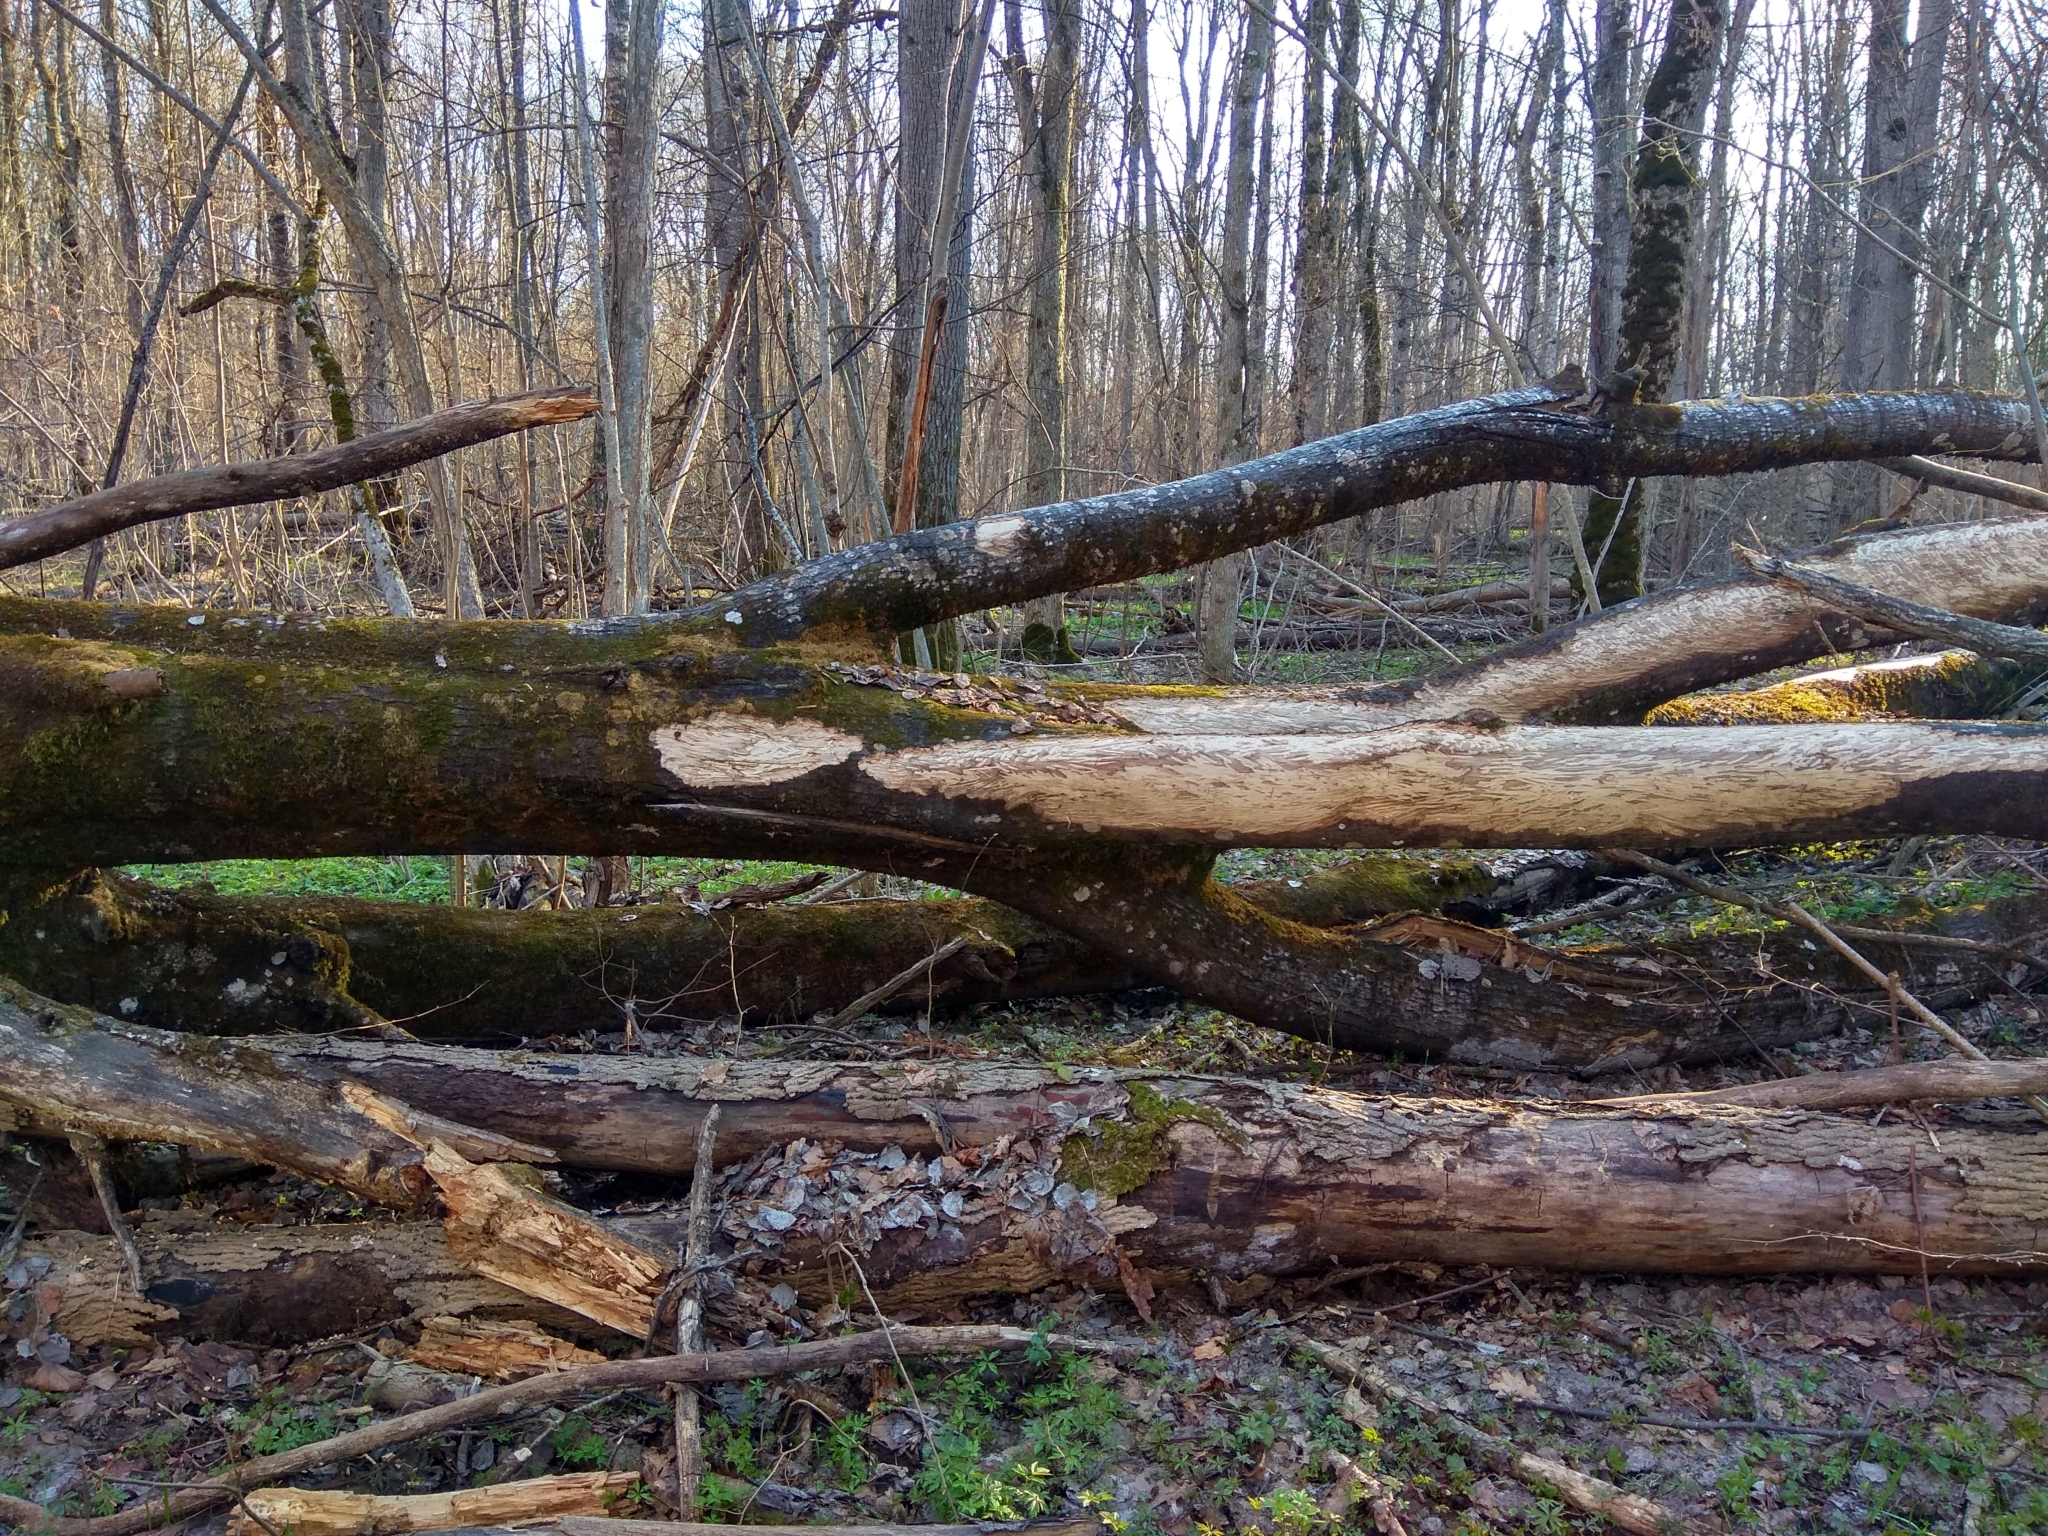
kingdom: Plantae
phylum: Tracheophyta
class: Magnoliopsida
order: Malpighiales
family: Salicaceae
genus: Populus
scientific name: Populus tremula
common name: European aspen
